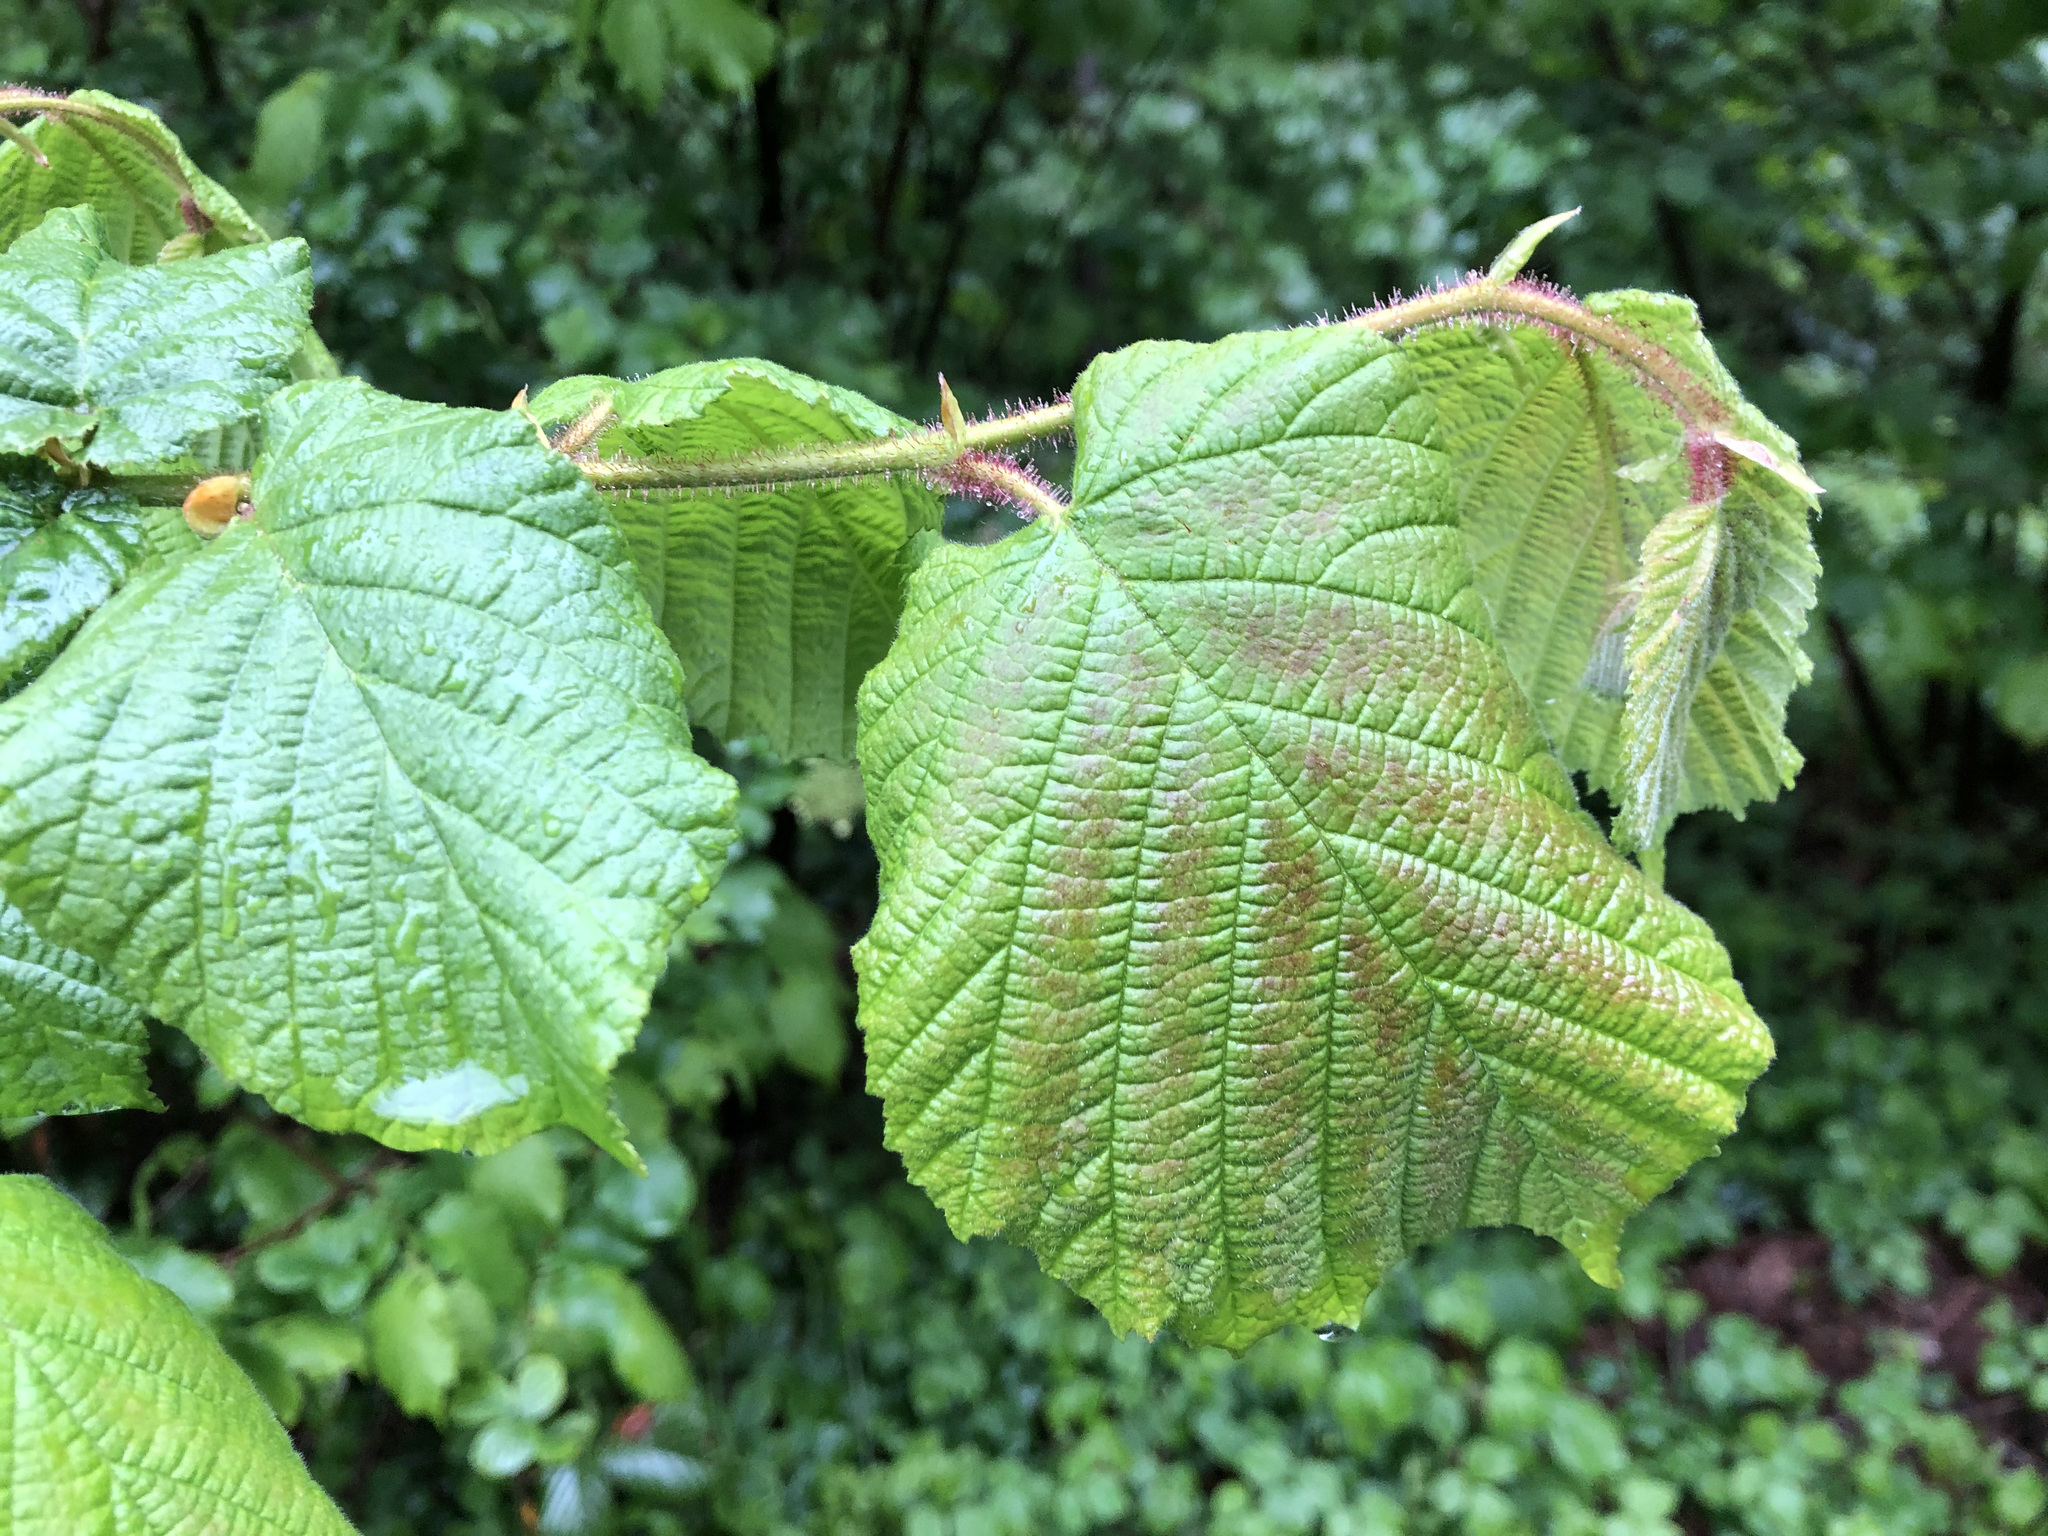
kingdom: Plantae
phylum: Tracheophyta
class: Magnoliopsida
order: Fagales
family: Betulaceae
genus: Corylus
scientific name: Corylus avellana
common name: European hazel
